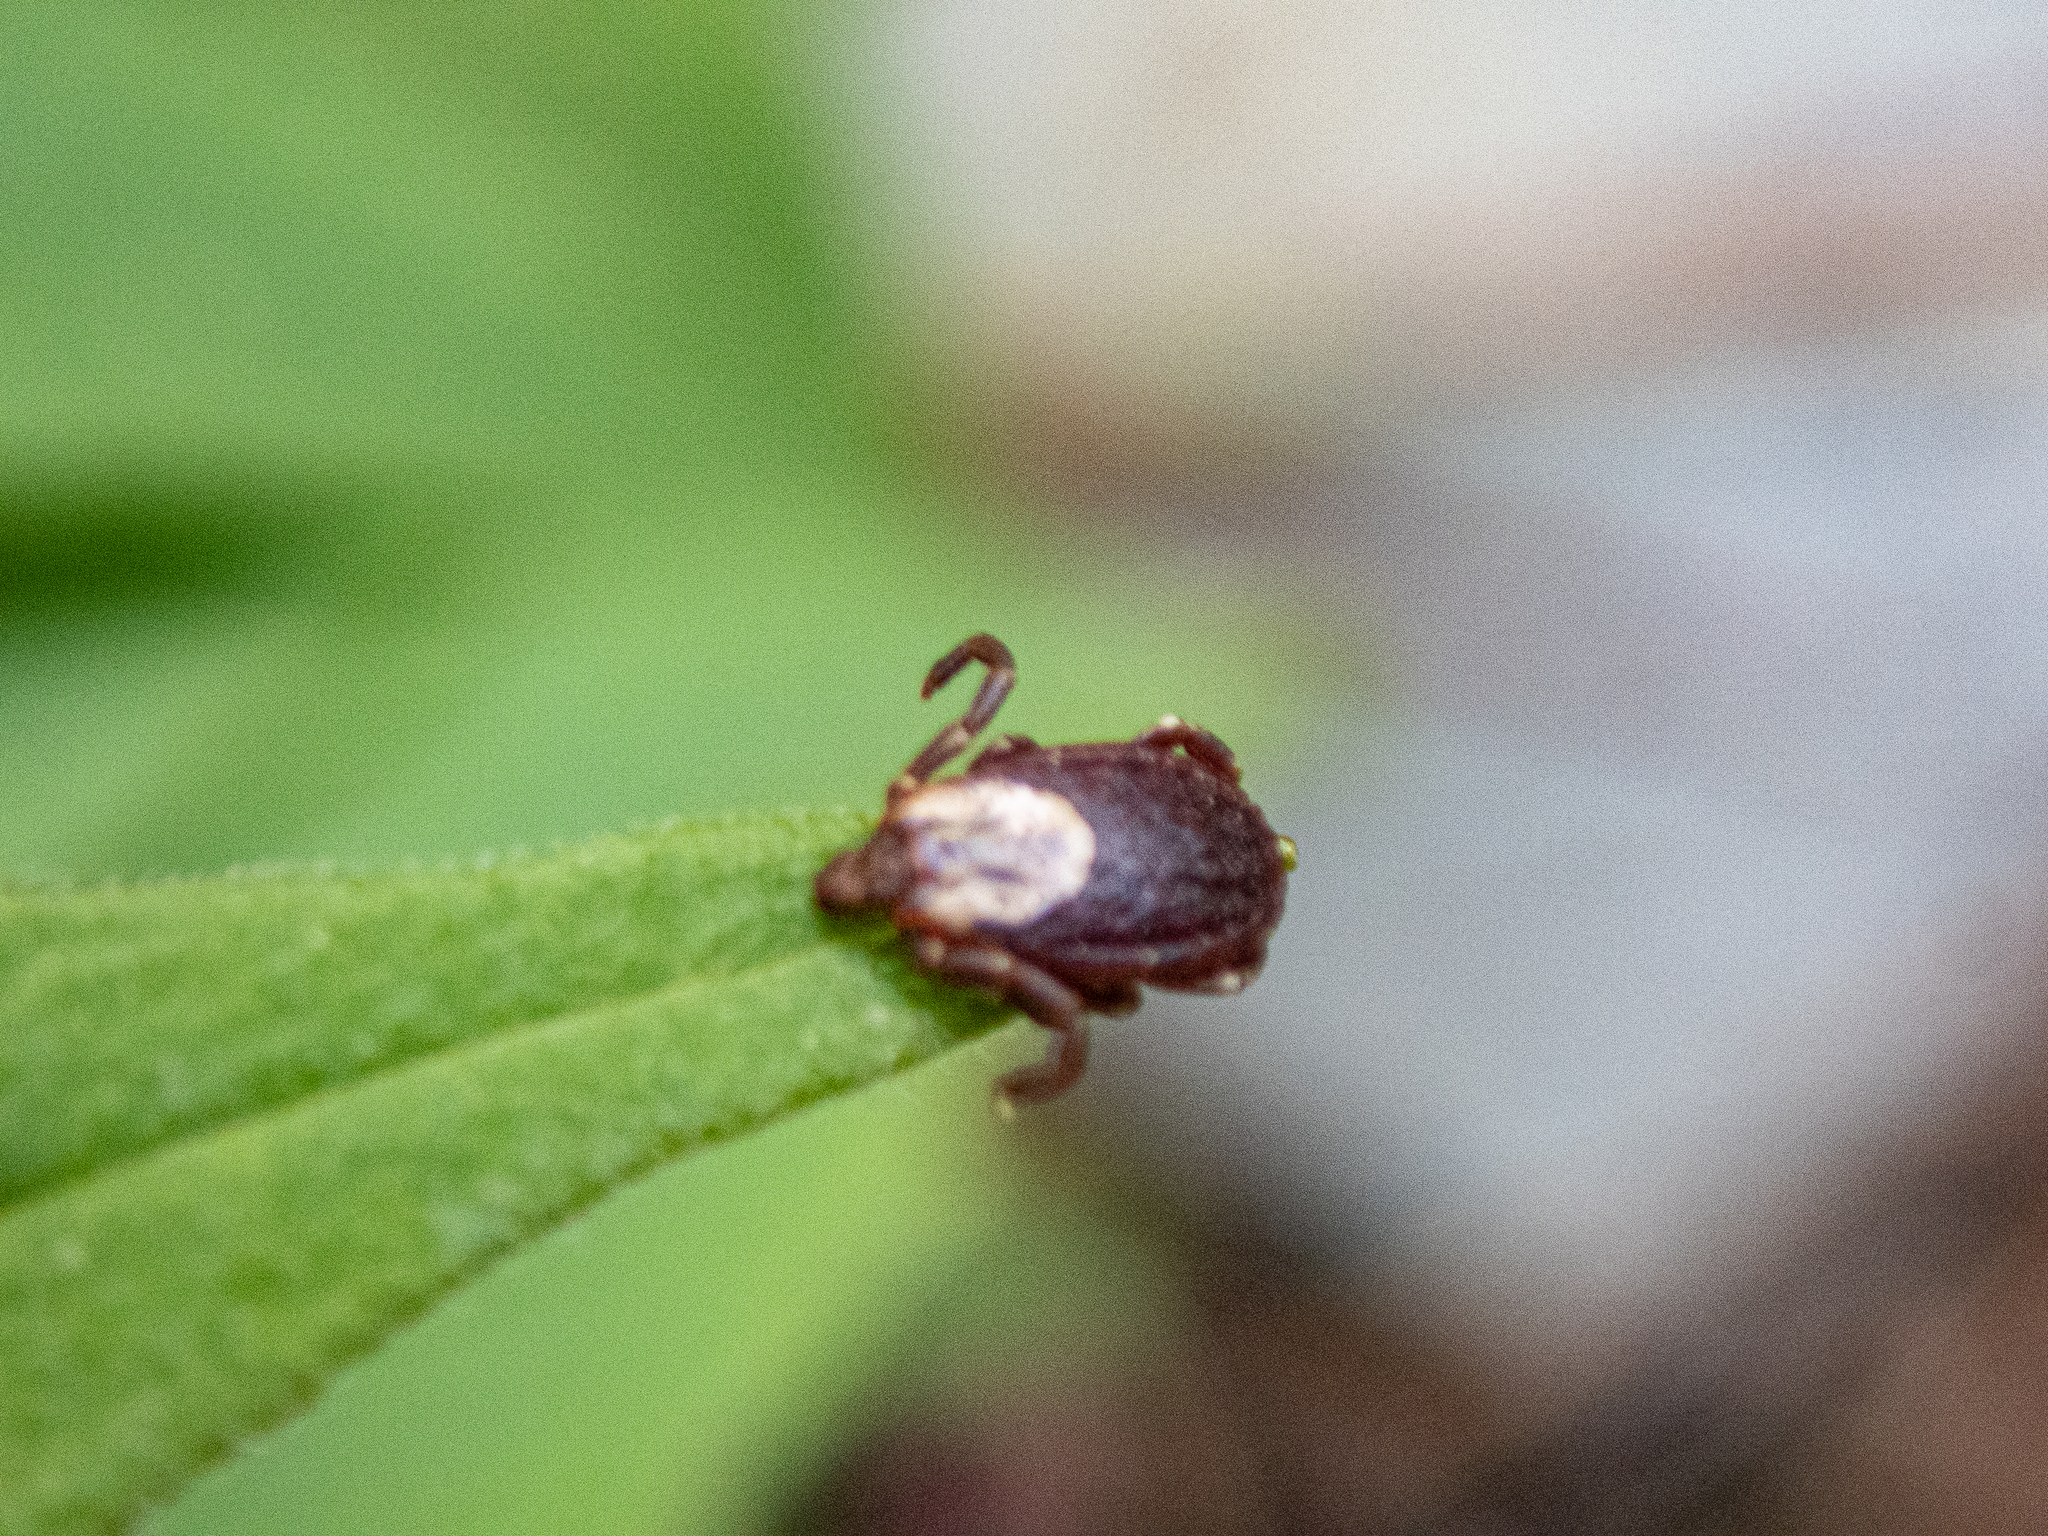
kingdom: Animalia
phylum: Arthropoda
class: Arachnida
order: Ixodida
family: Ixodidae
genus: Dermacentor
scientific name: Dermacentor variabilis
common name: American dog tick
